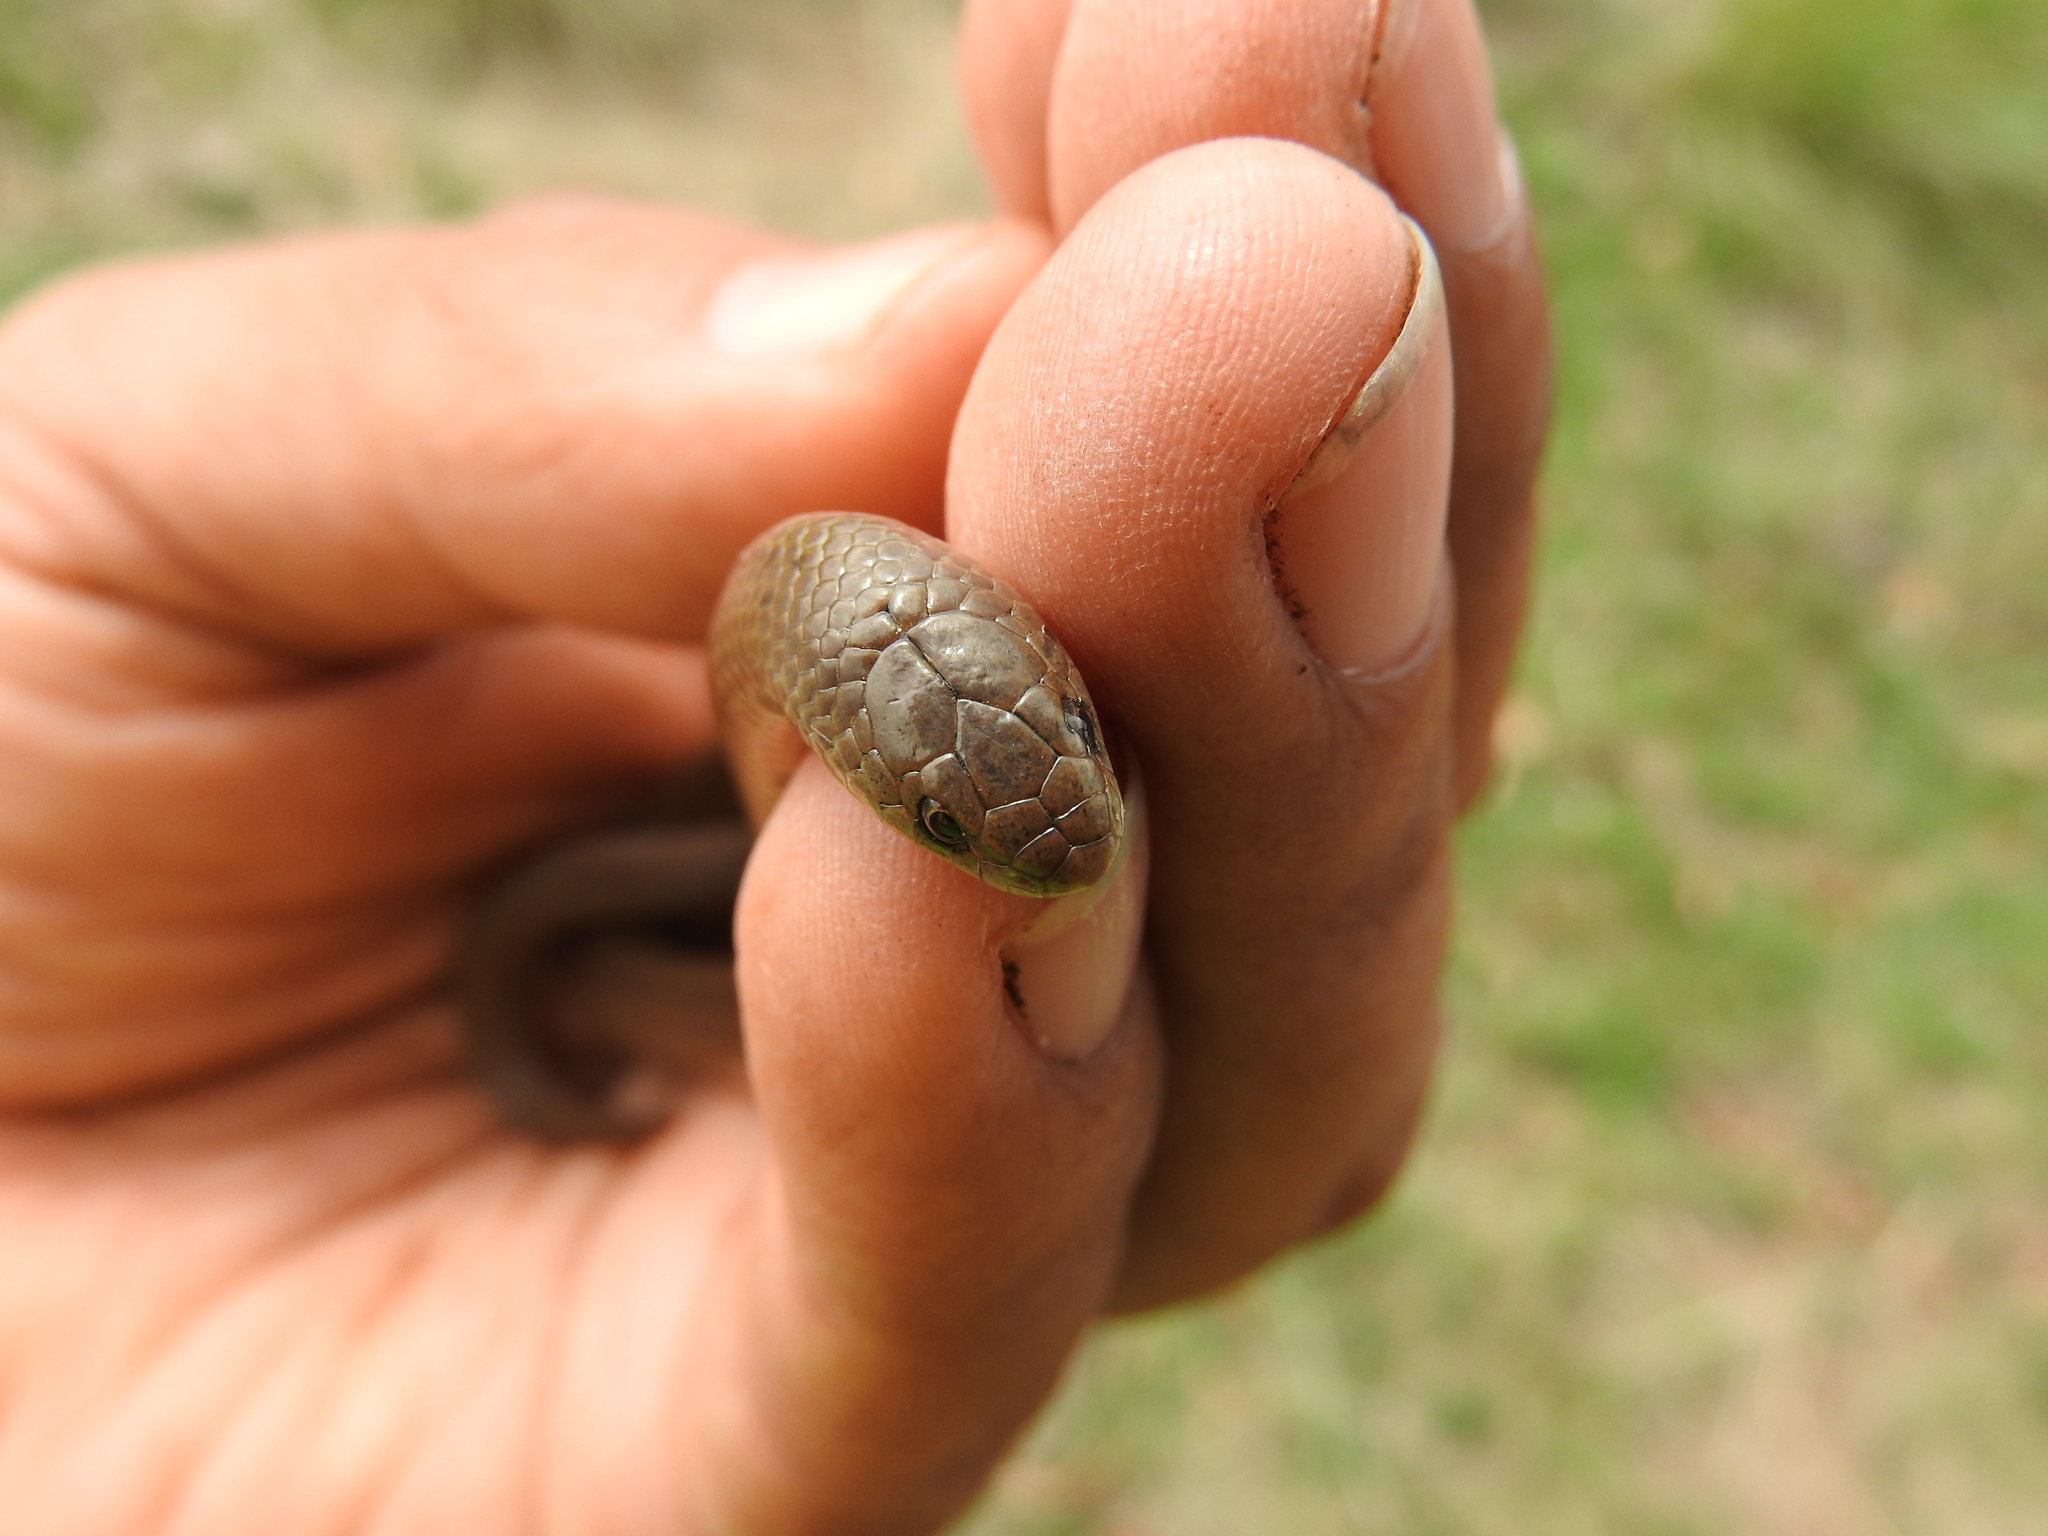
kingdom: Animalia
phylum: Chordata
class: Squamata
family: Colubridae
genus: Conopsis
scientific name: Conopsis lineata
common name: Lined tolucan earthsnake
